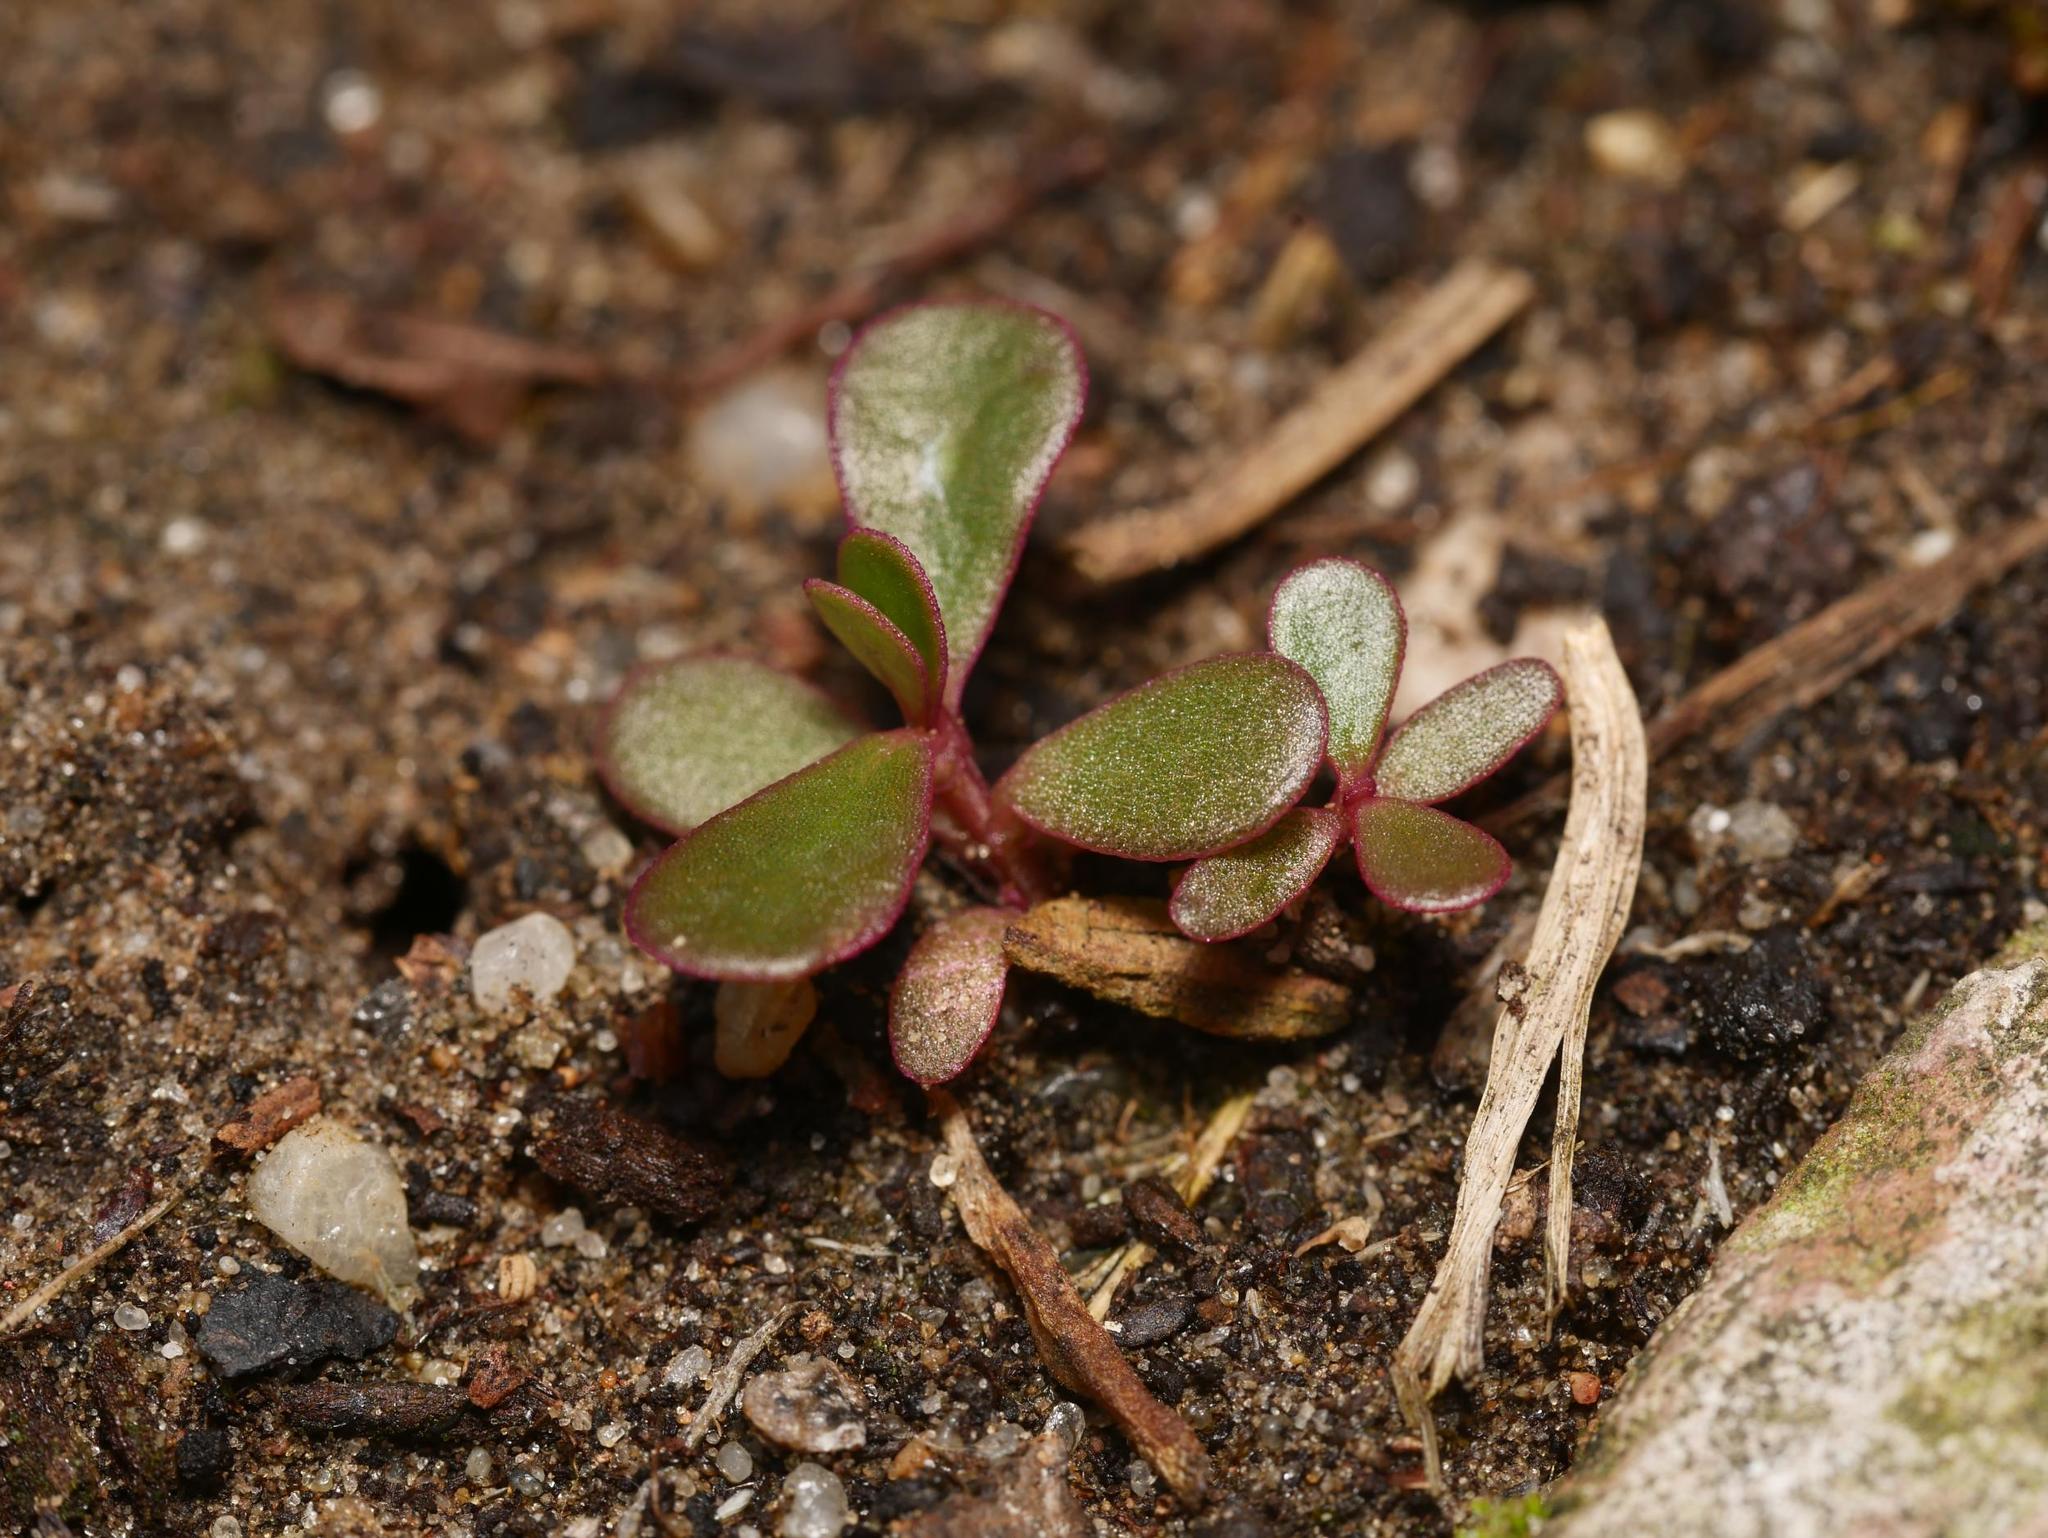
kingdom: Plantae
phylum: Tracheophyta
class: Magnoliopsida
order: Caryophyllales
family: Portulacaceae
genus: Portulaca
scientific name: Portulaca oleracea
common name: Common purslane
